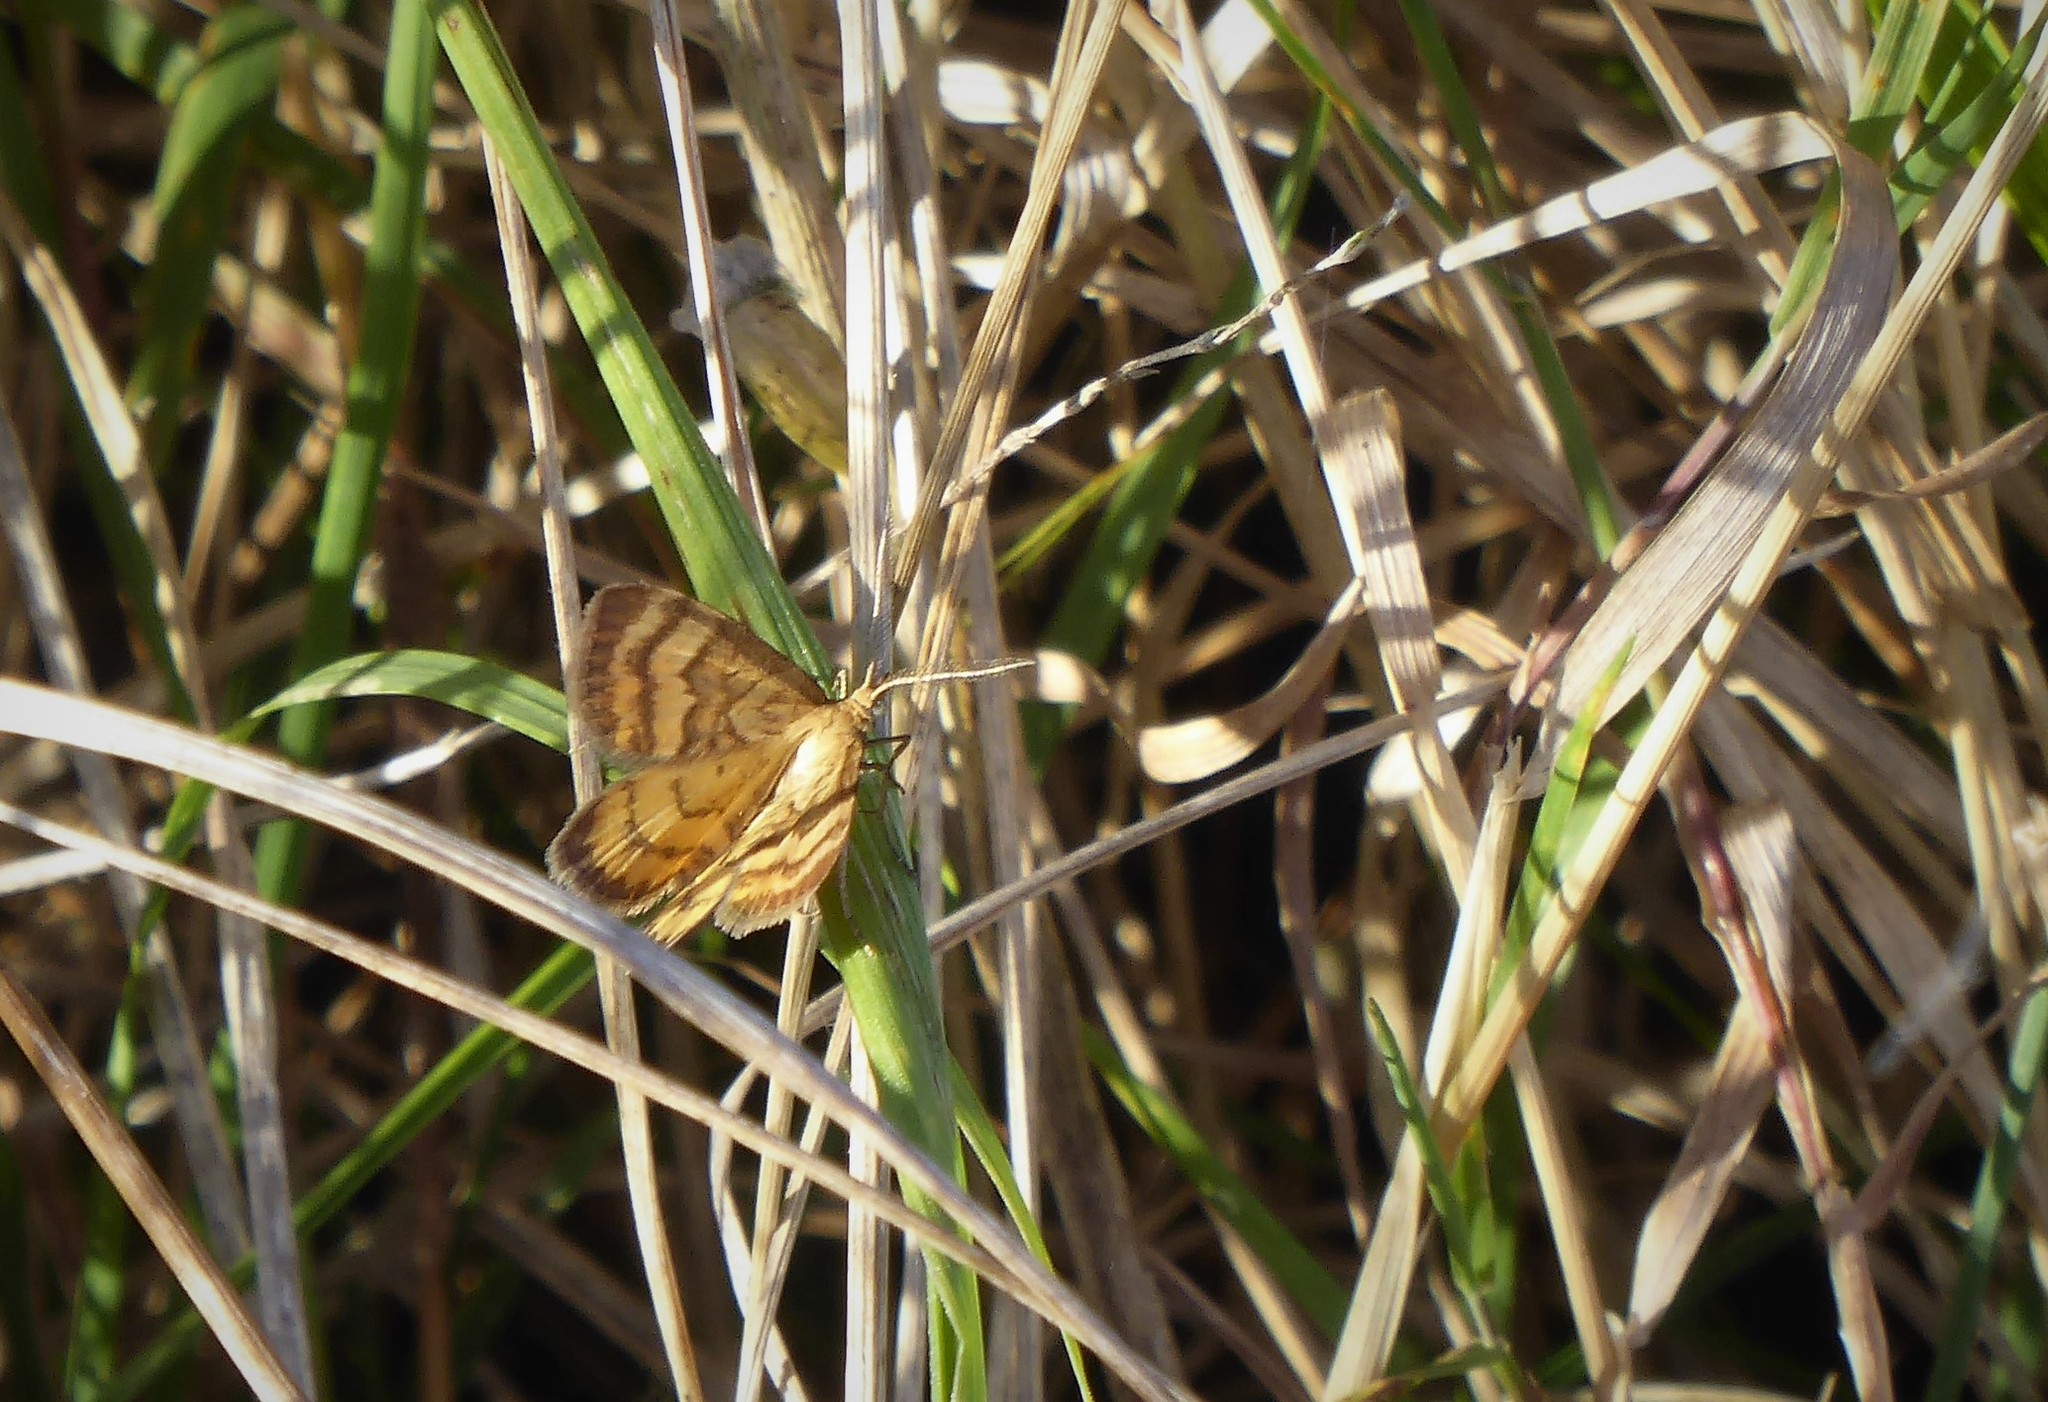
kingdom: Animalia
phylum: Arthropoda
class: Insecta
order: Lepidoptera
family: Geometridae
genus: Asaphodes
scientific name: Asaphodes abrogata
